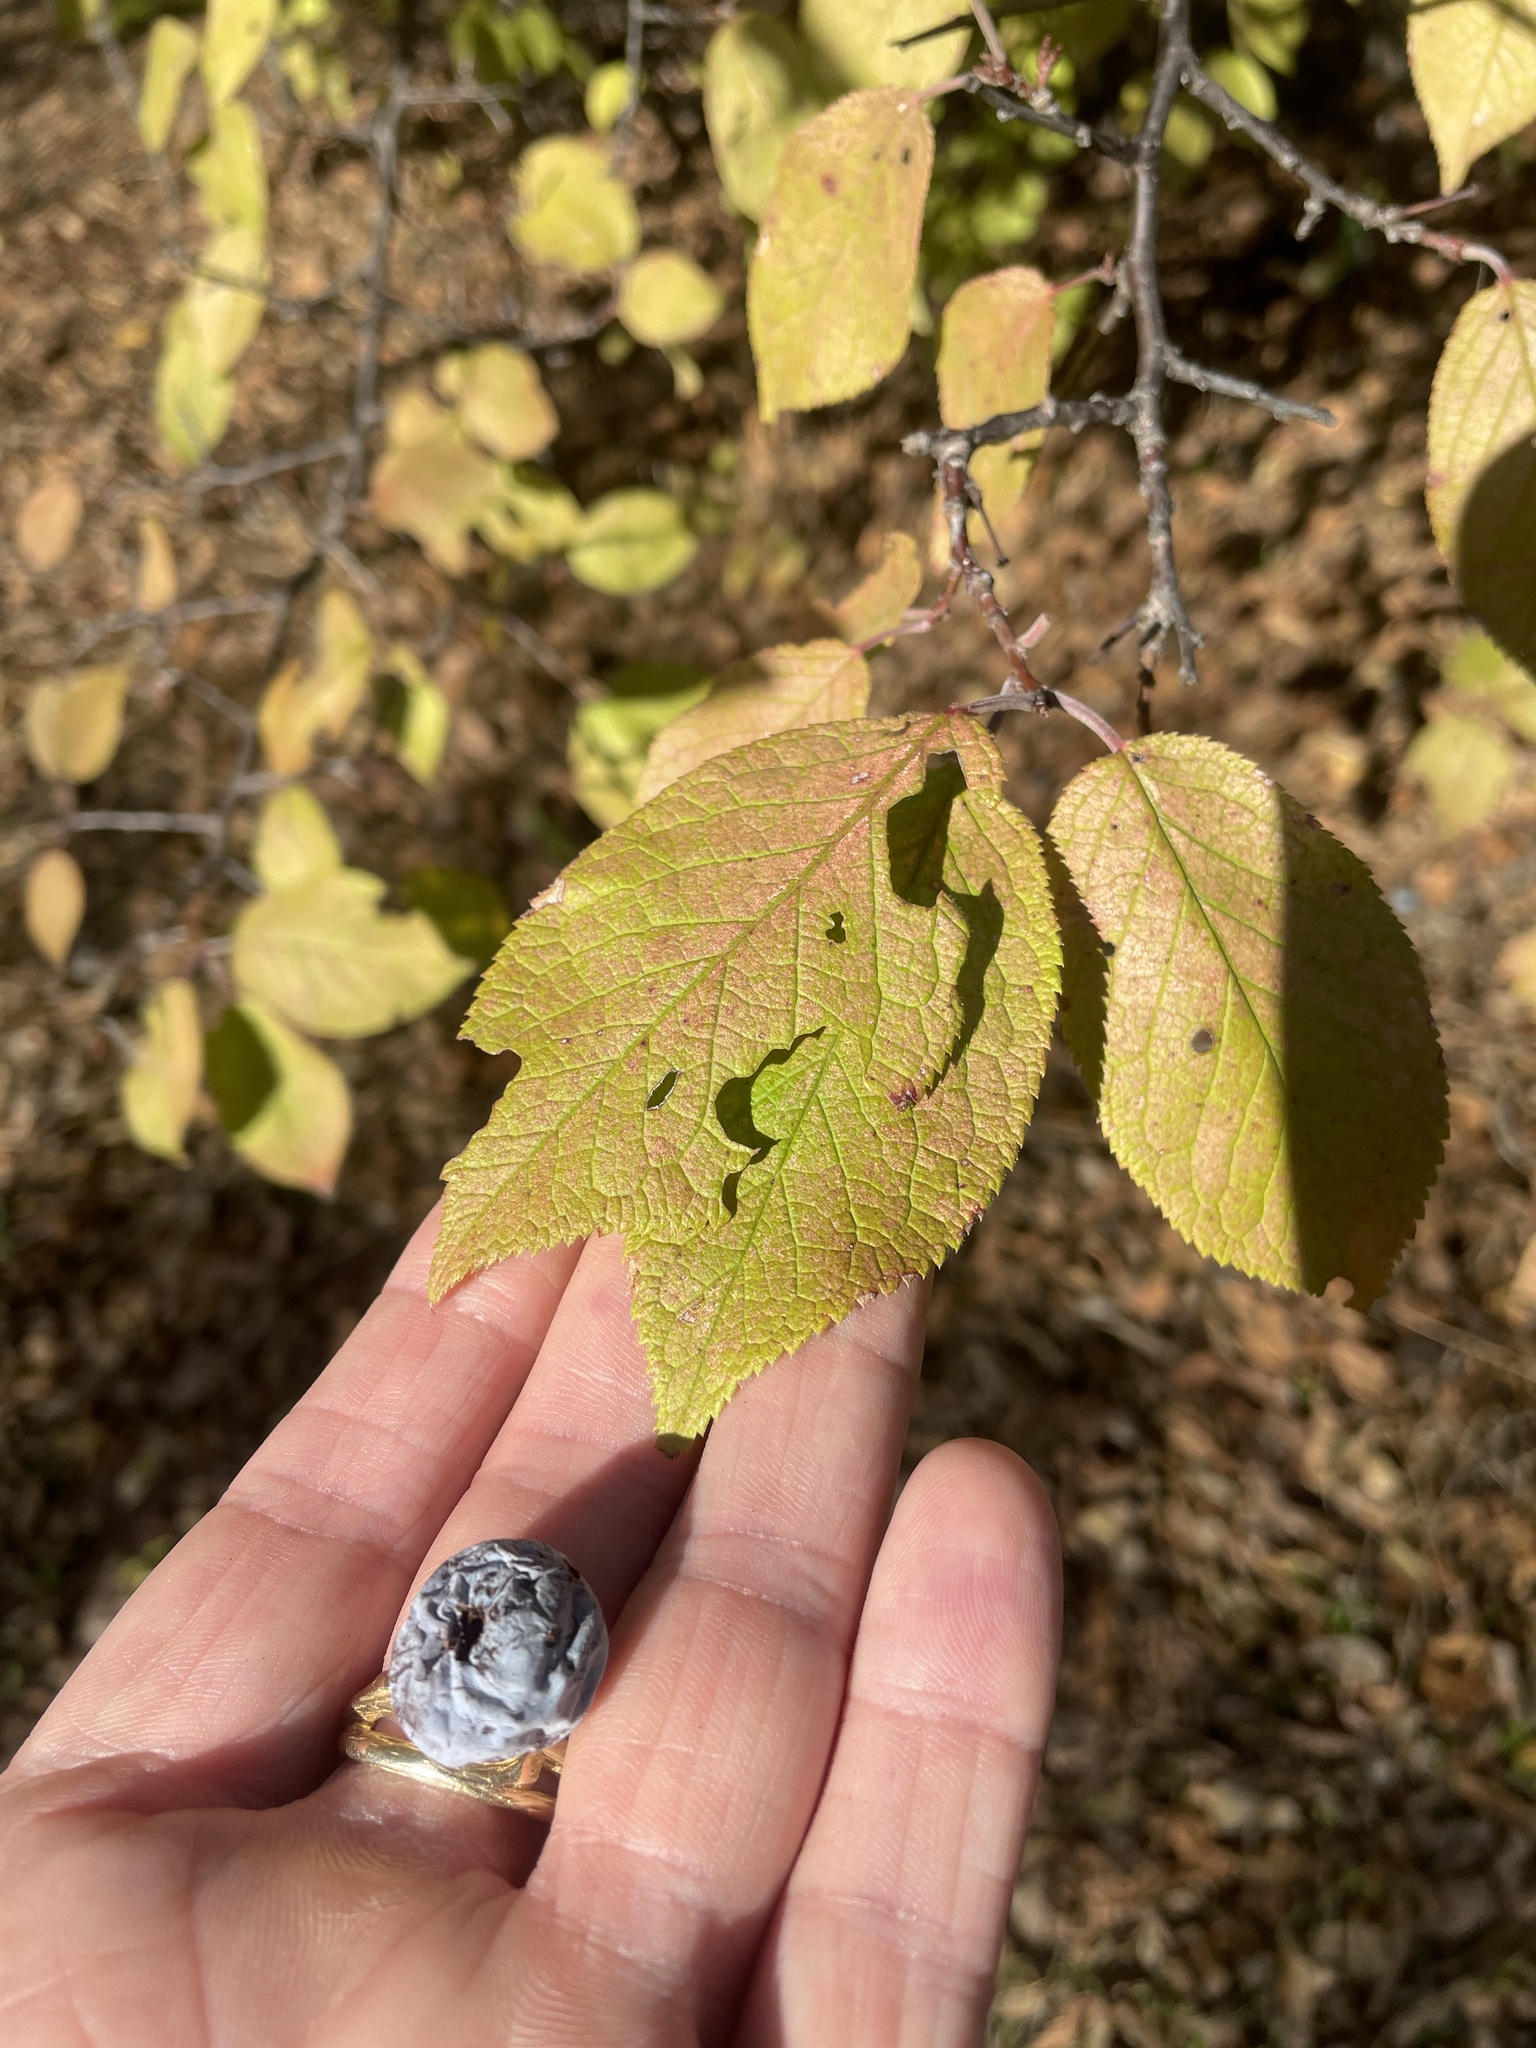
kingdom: Plantae
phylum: Tracheophyta
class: Magnoliopsida
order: Rosales
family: Rosaceae
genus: Prunus
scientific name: Prunus mexicana
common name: Mexican plum
